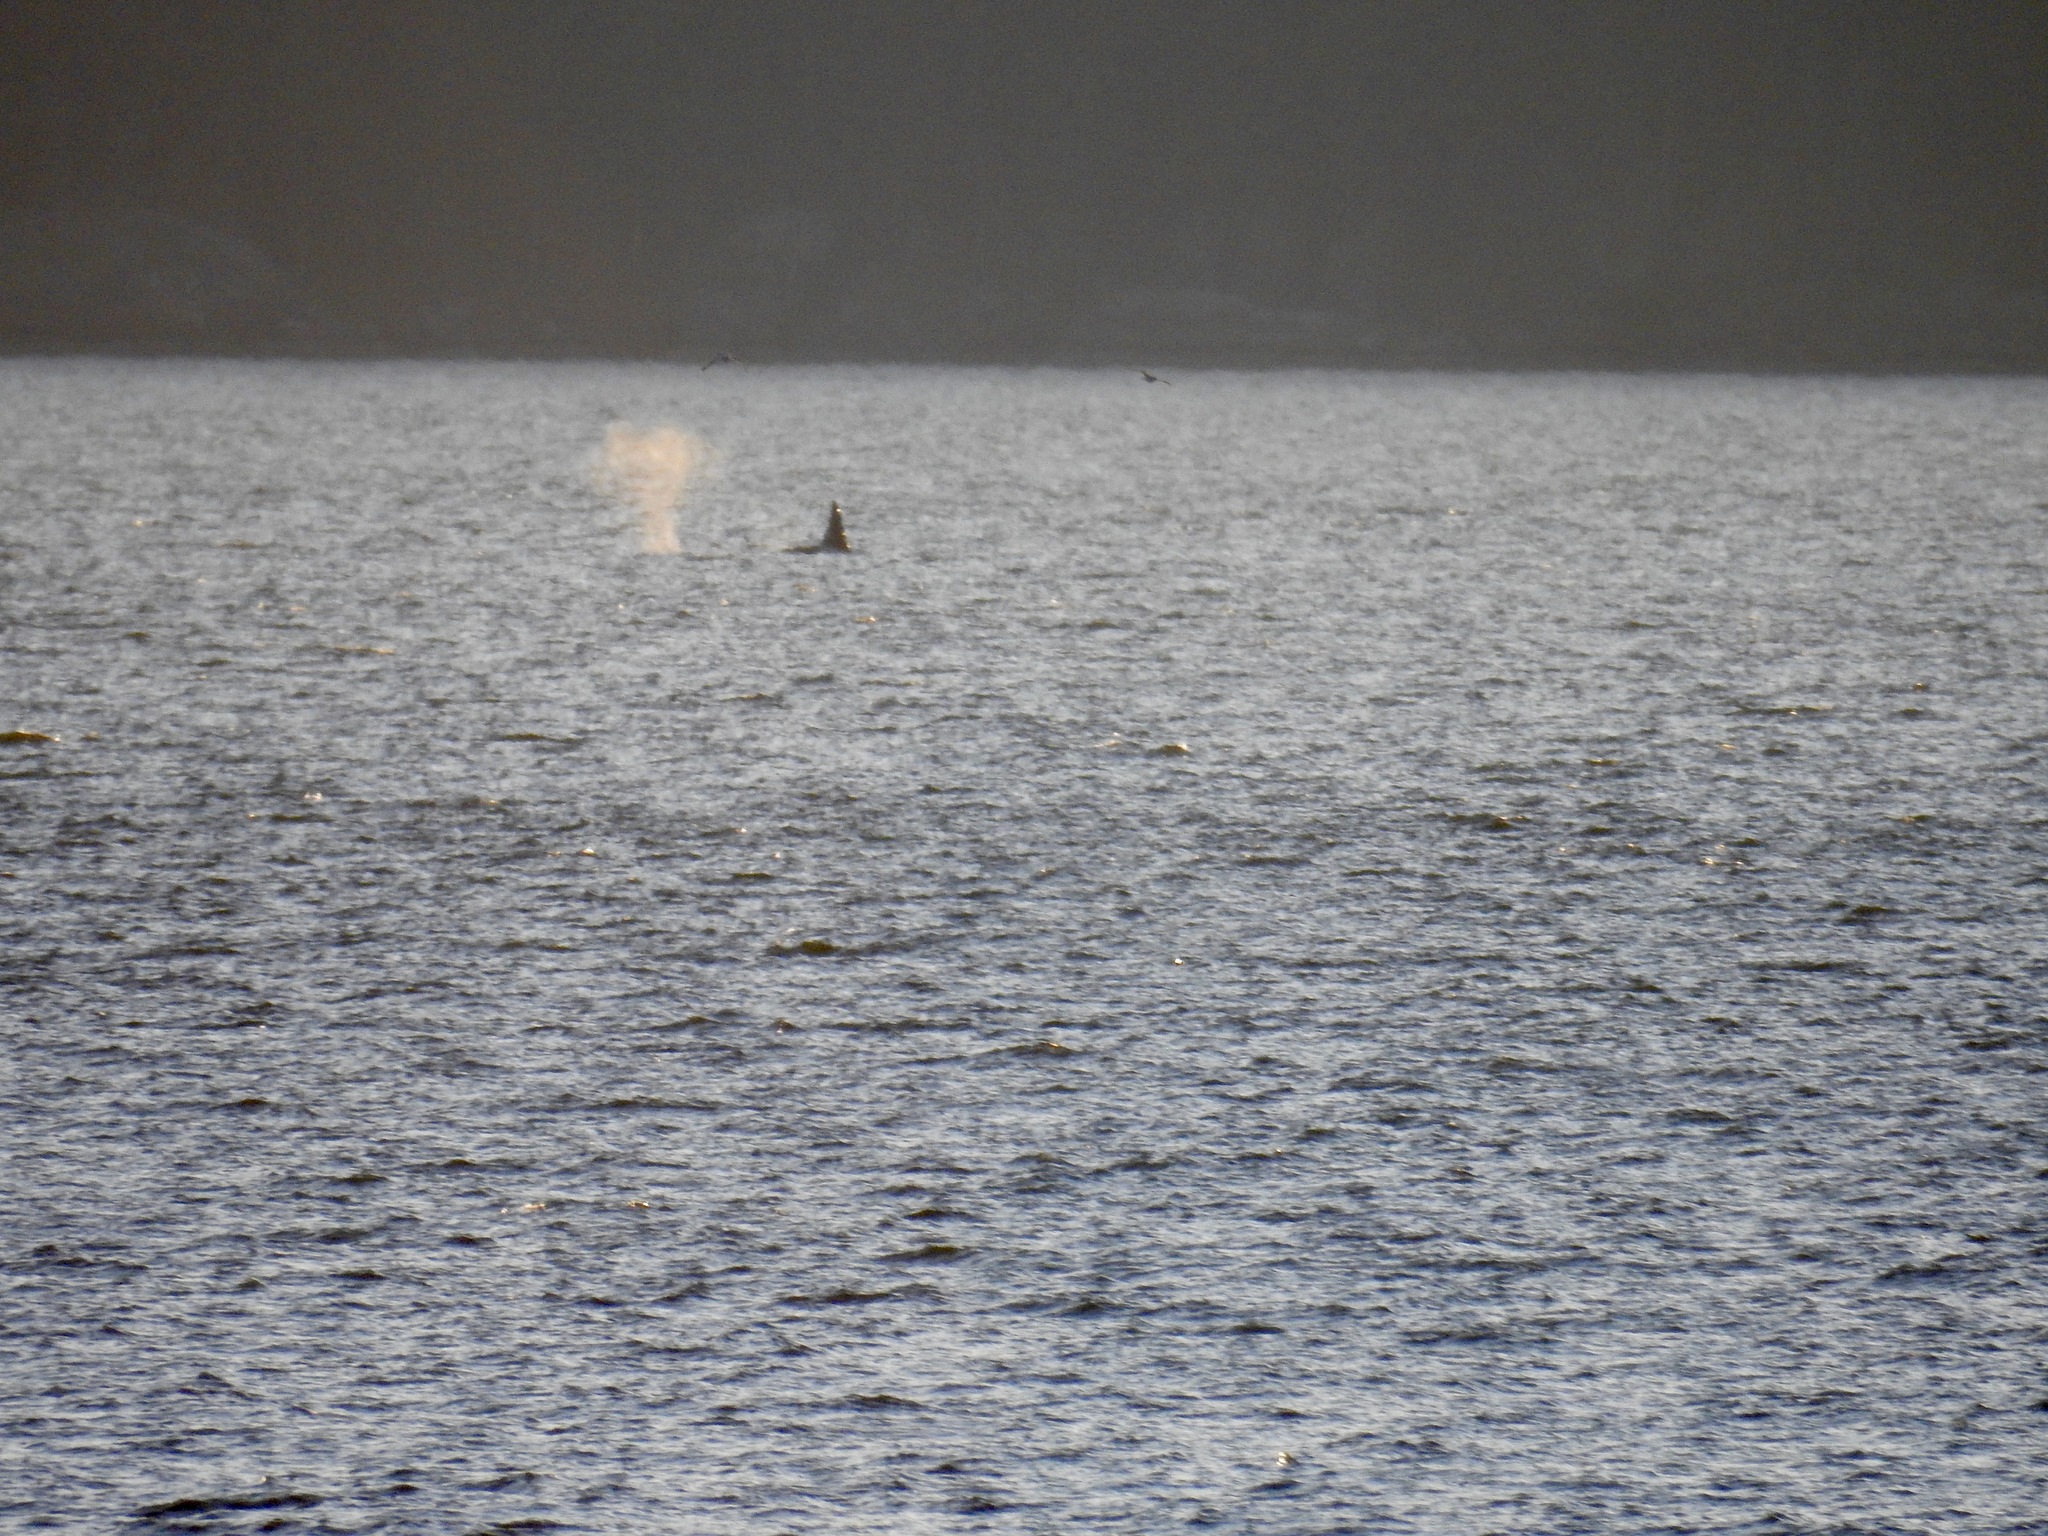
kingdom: Animalia
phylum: Chordata
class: Mammalia
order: Cetacea
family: Delphinidae
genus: Orcinus
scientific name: Orcinus orca
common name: Killer whale
